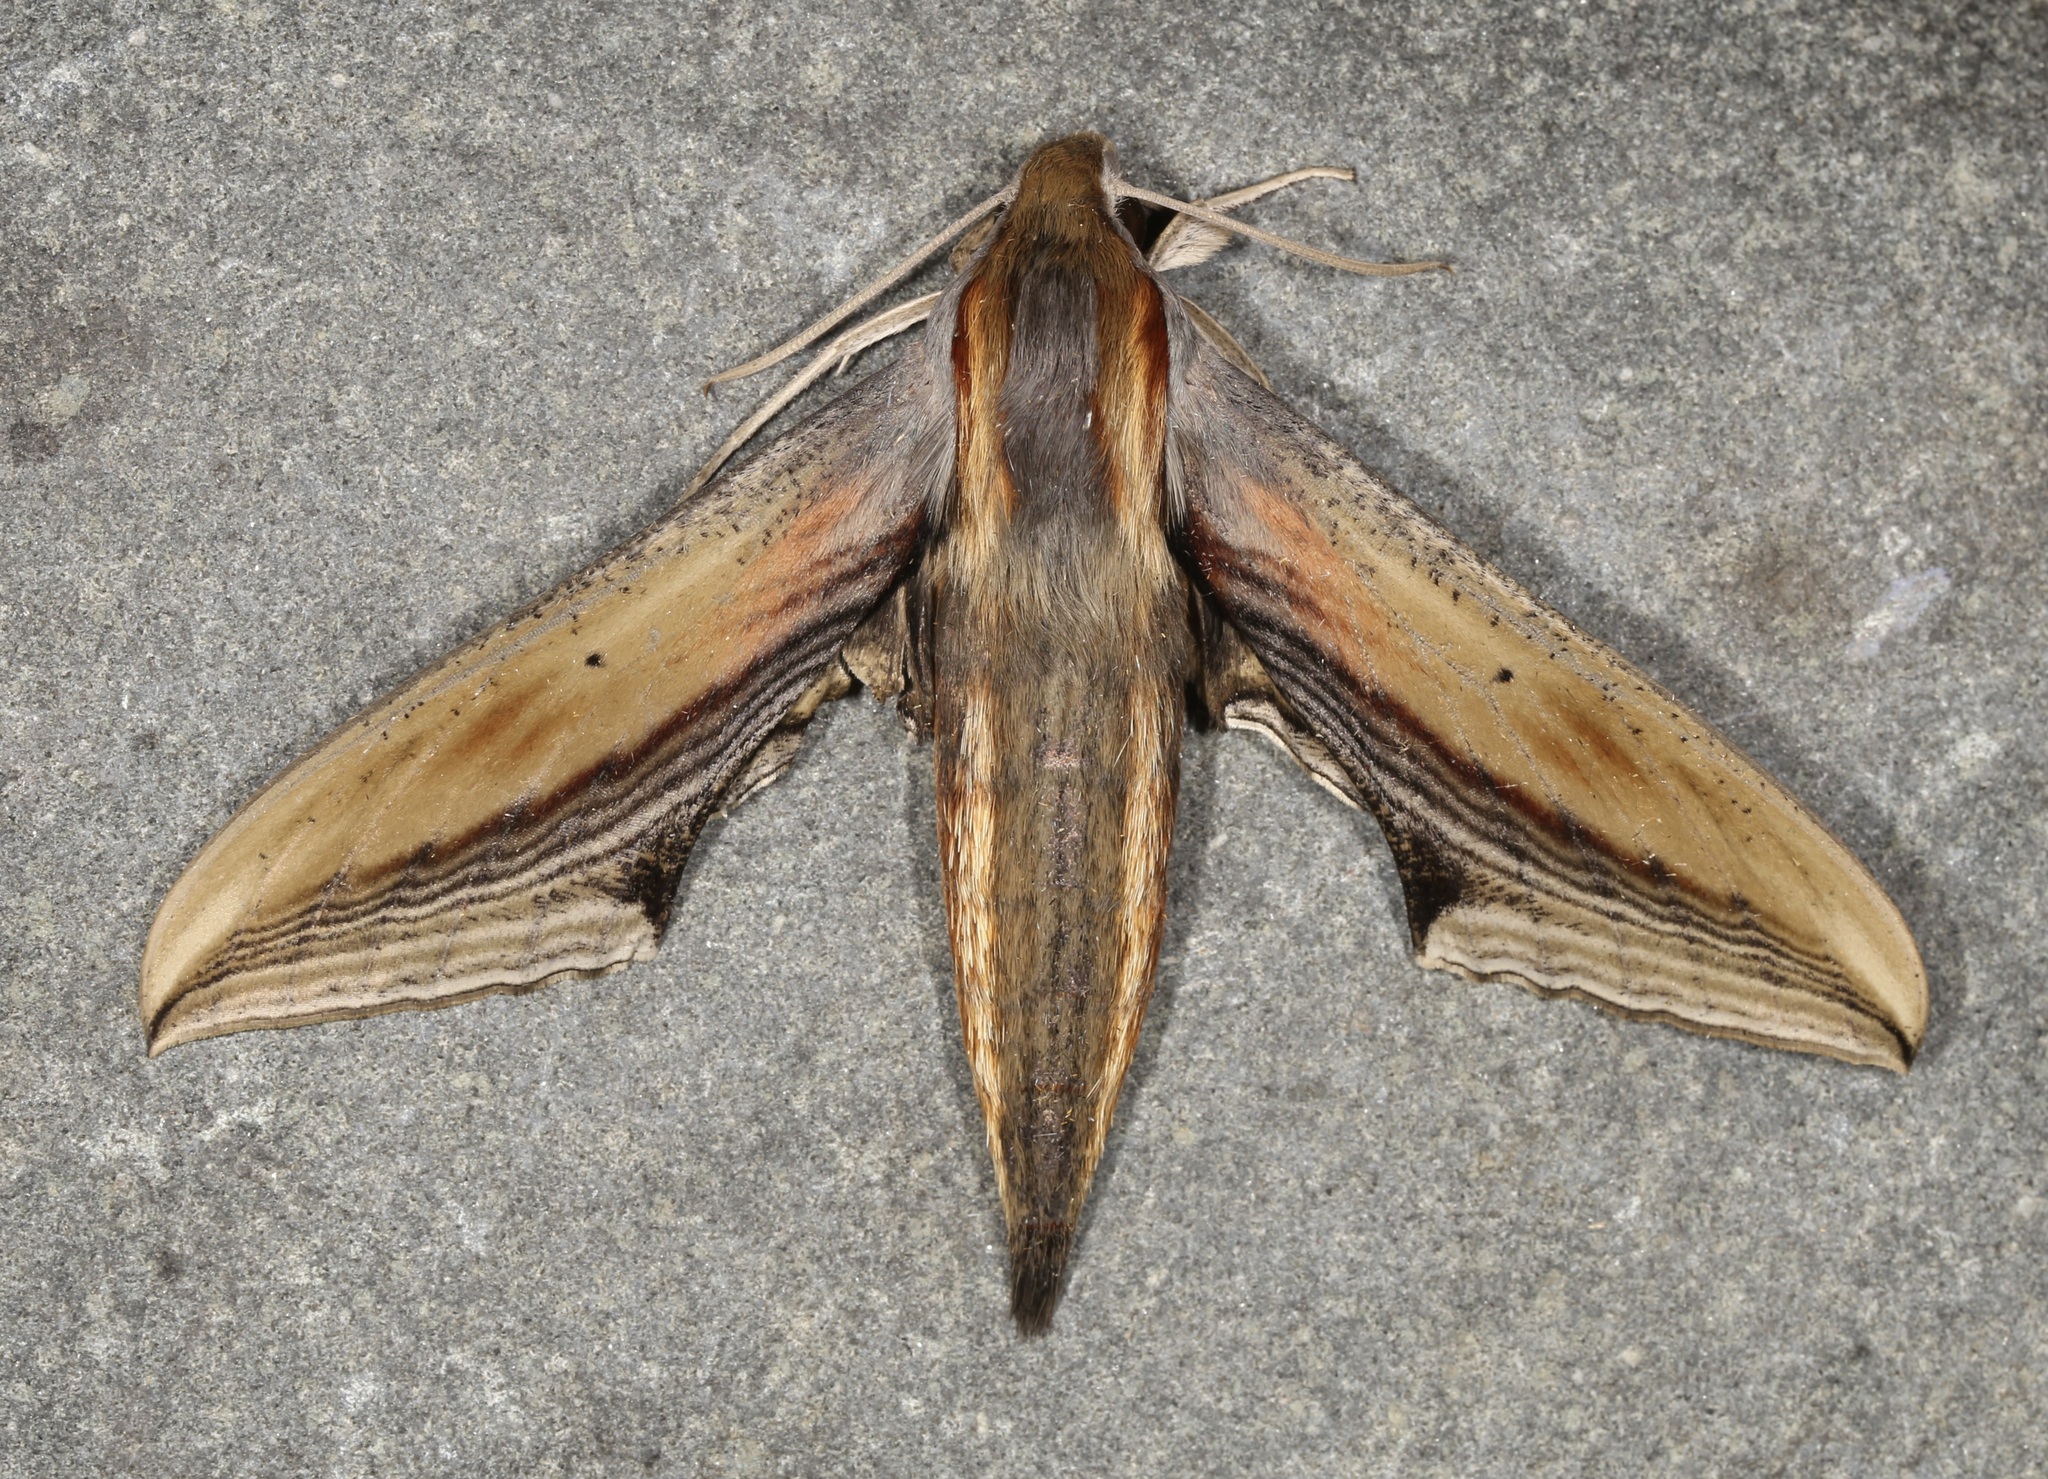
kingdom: Animalia
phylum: Arthropoda
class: Insecta
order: Lepidoptera
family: Sphingidae
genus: Xylophanes
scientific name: Xylophanes falco
